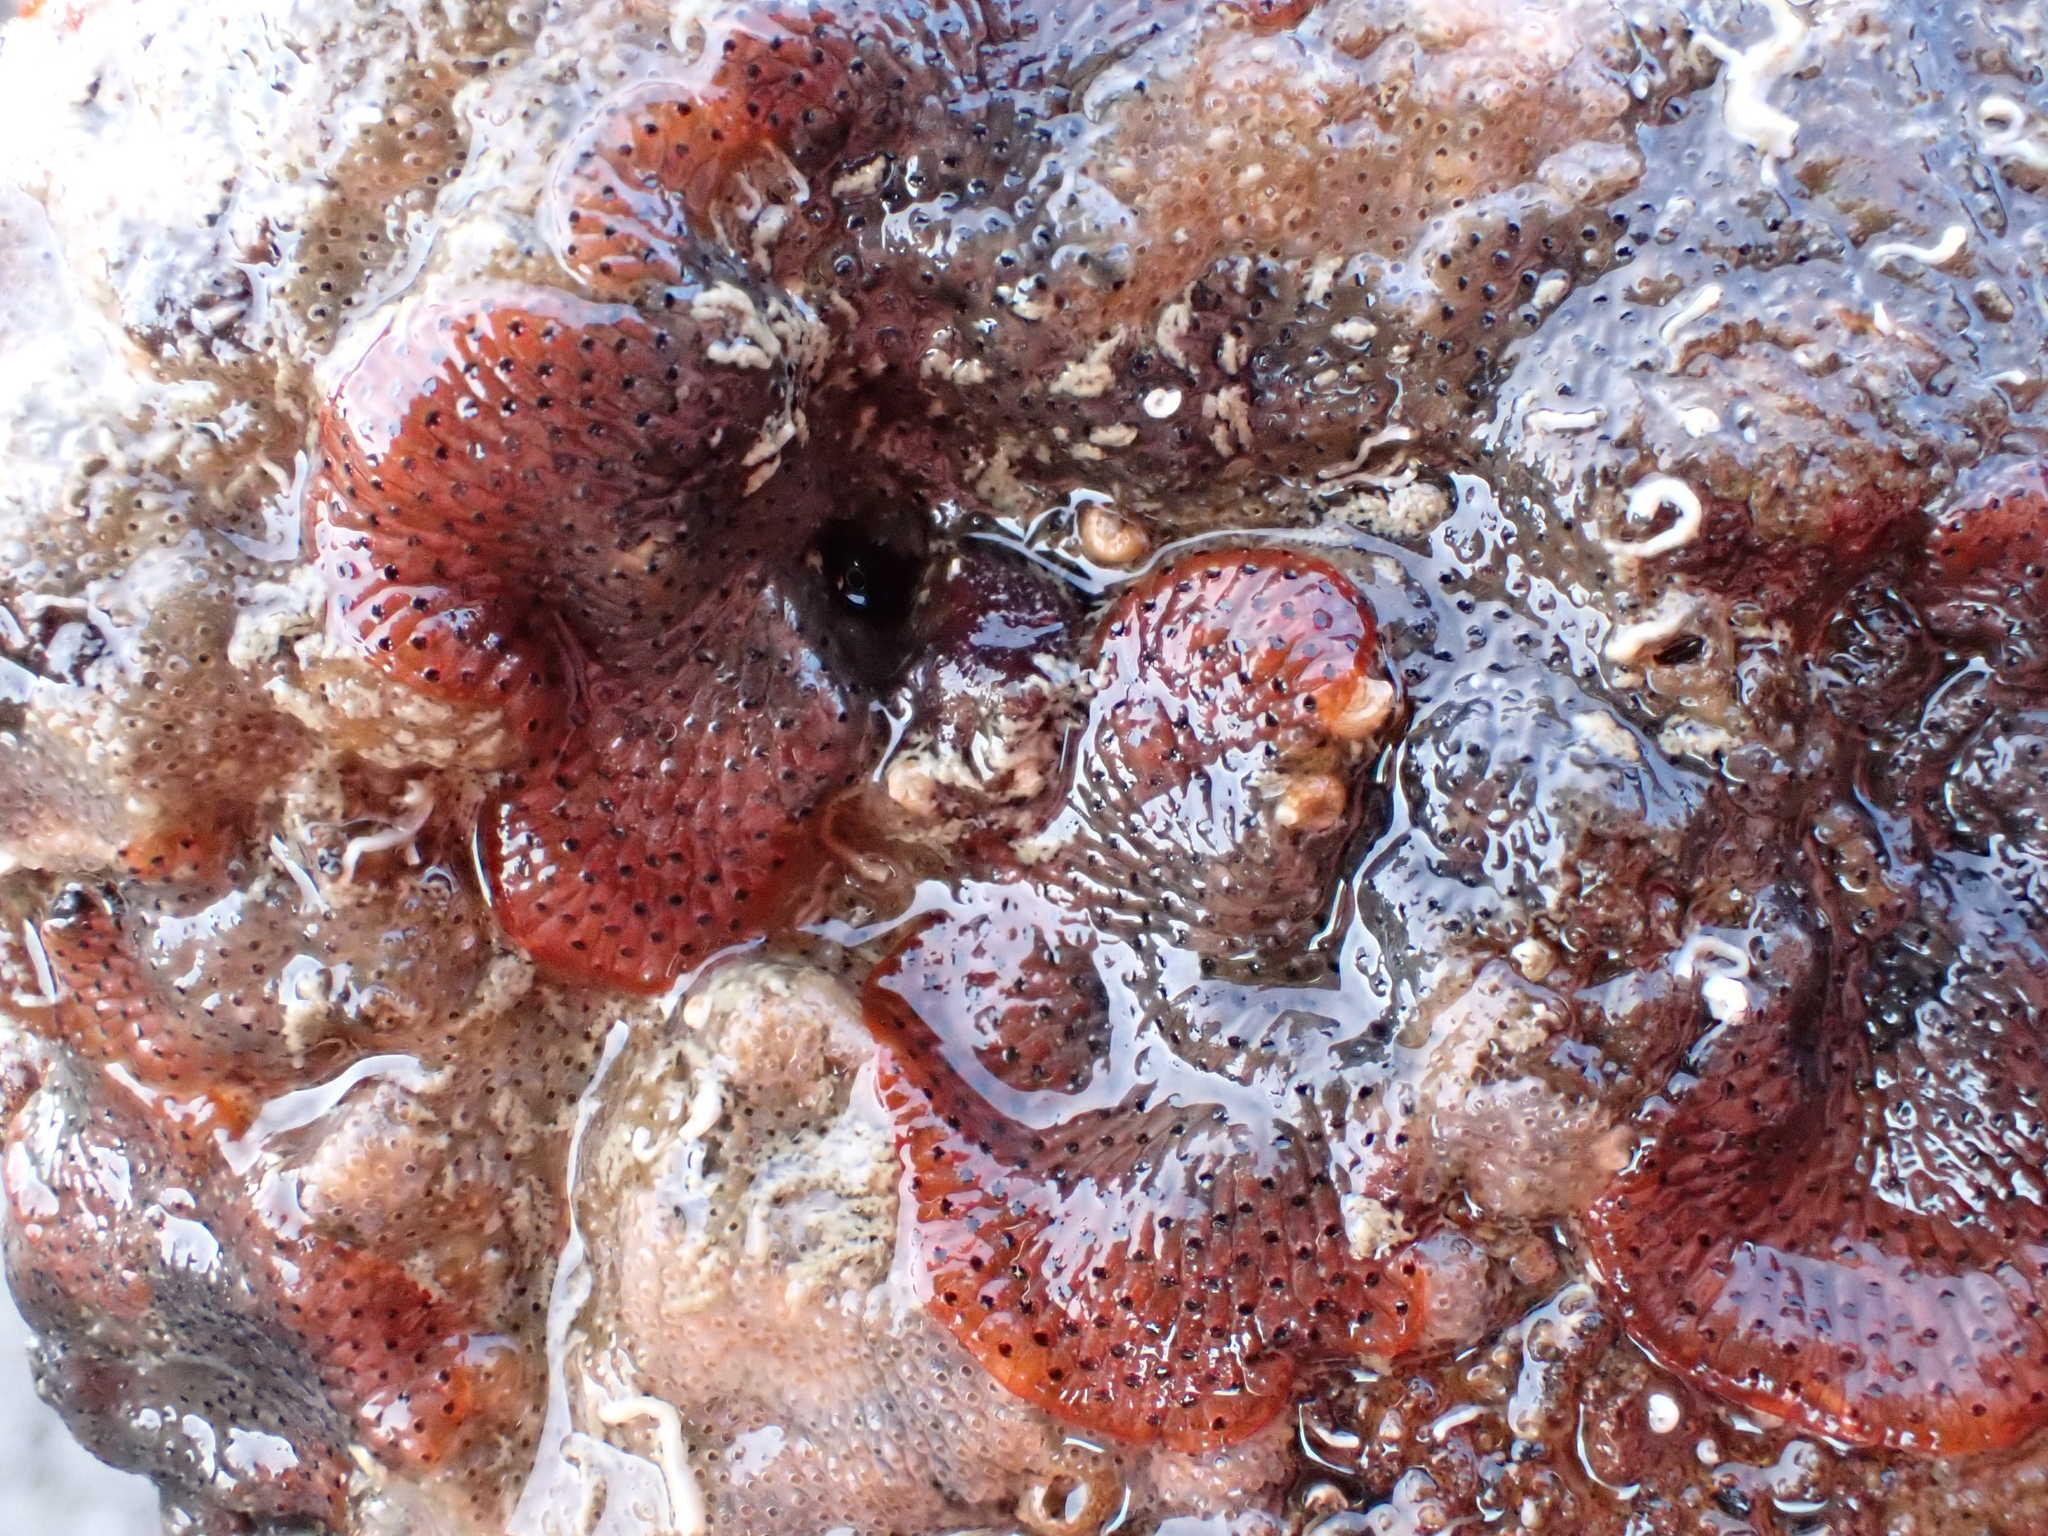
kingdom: Animalia
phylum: Bryozoa
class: Gymnolaemata
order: Cheilostomatida
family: Watersiporidae
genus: Watersipora
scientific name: Watersipora subatra
